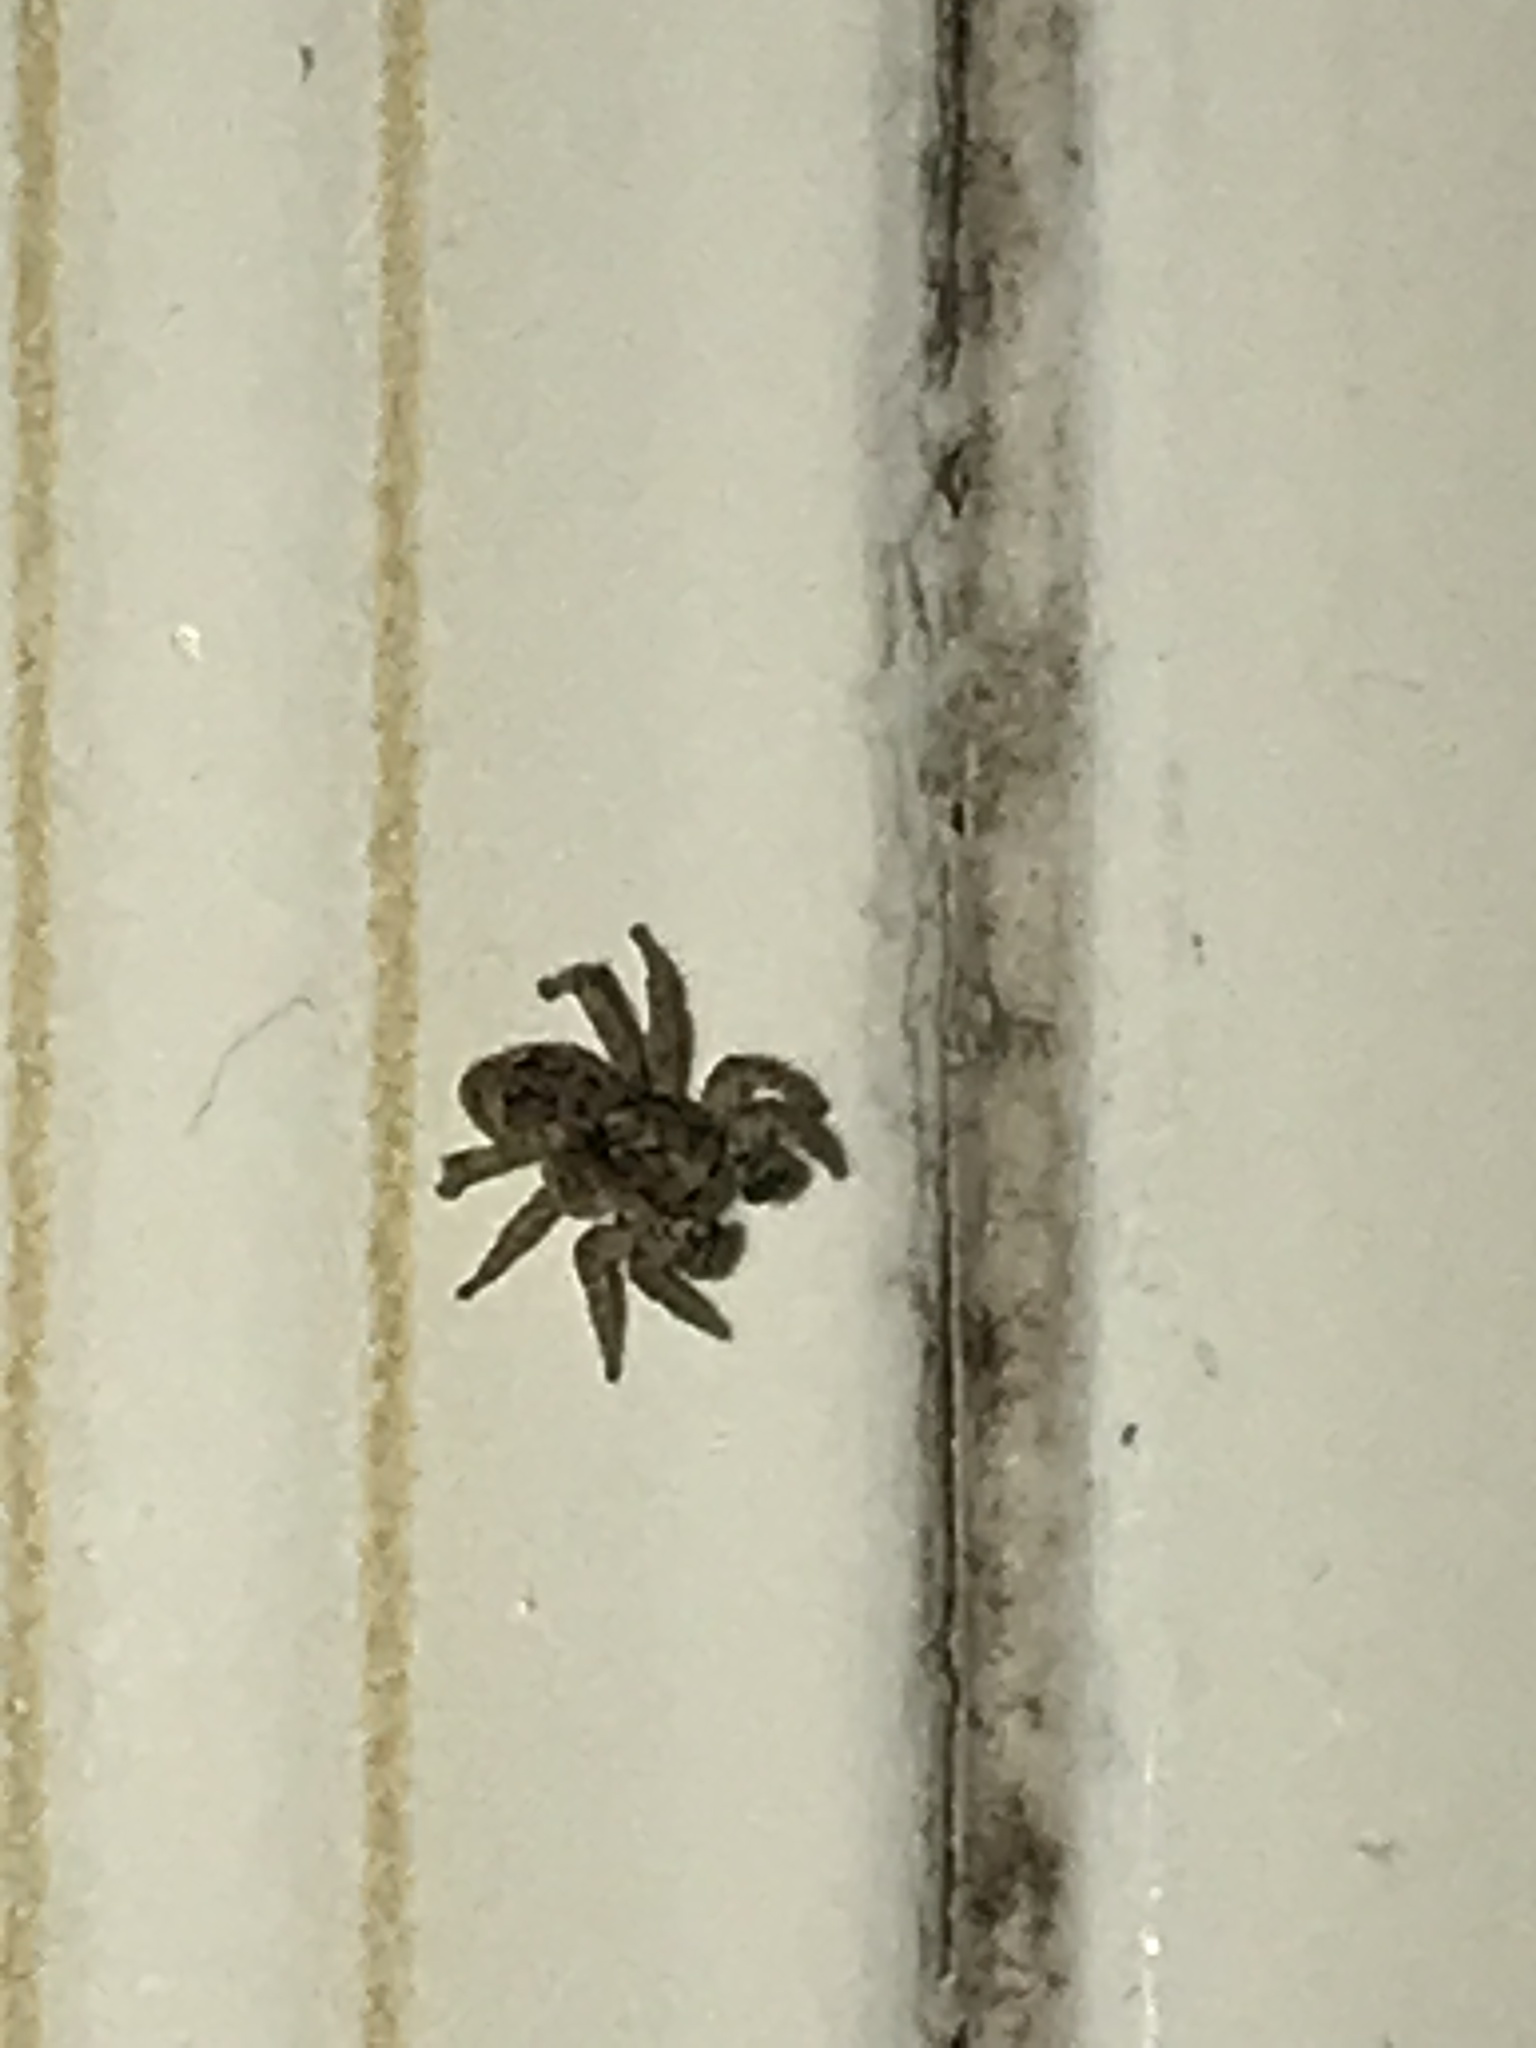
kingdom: Animalia
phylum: Arthropoda
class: Arachnida
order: Araneae
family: Salticidae
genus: Attulus
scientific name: Attulus fasciger
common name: Asiatic wall jumping spider
